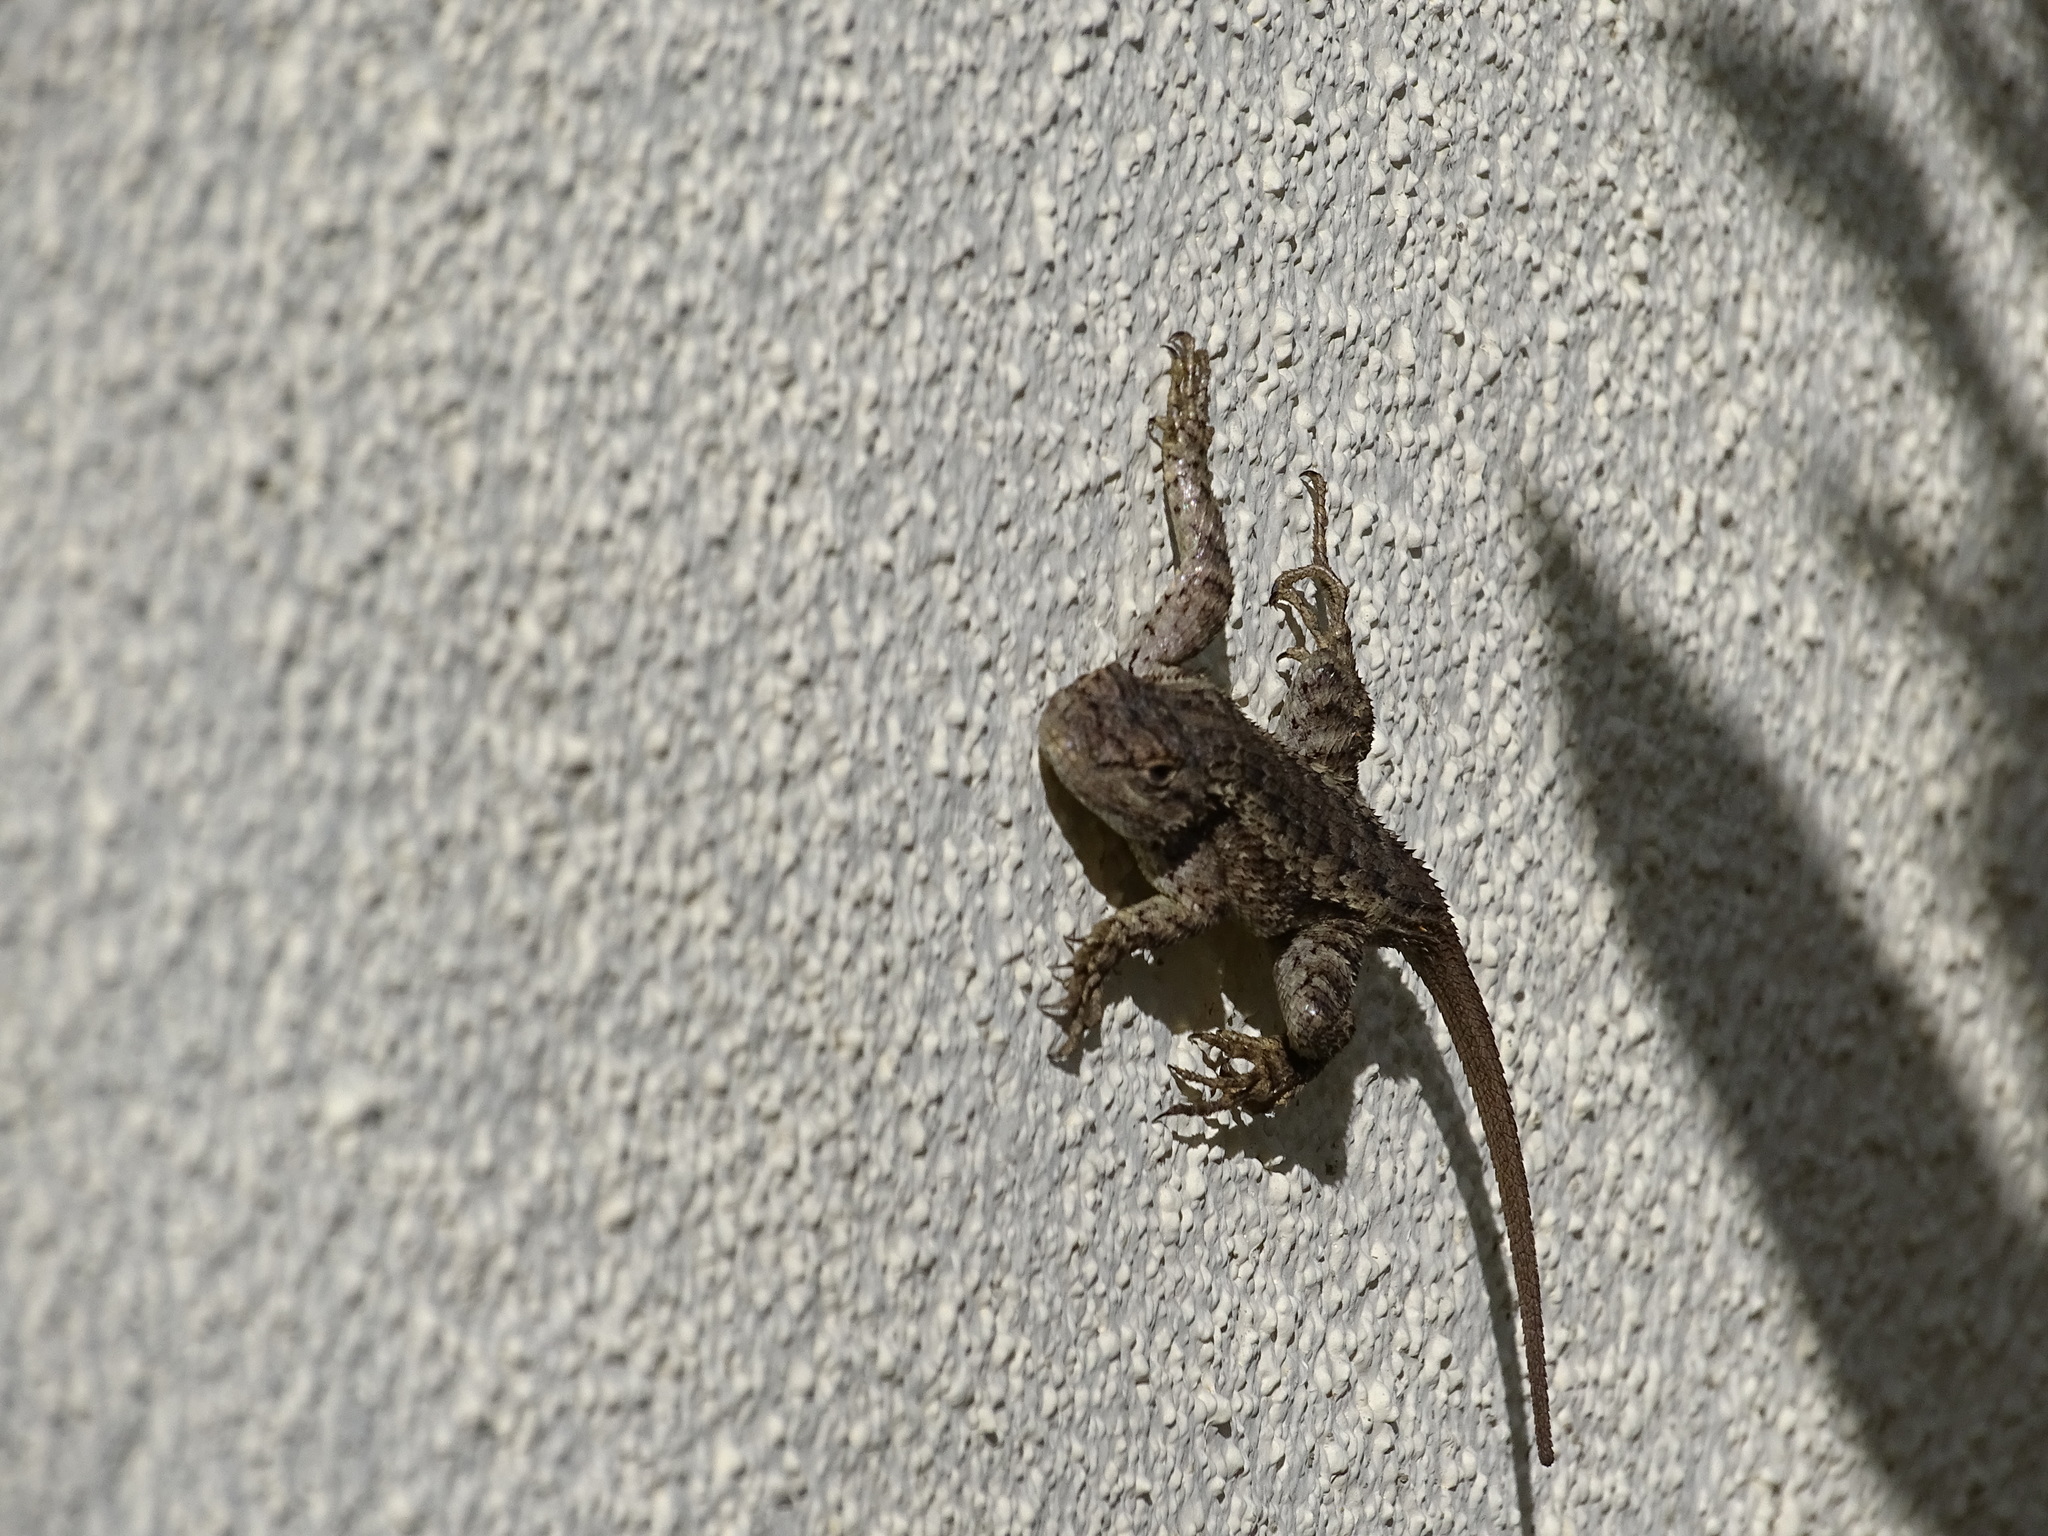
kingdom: Animalia
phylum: Chordata
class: Squamata
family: Phrynosomatidae
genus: Sceloporus
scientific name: Sceloporus occidentalis
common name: Western fence lizard
